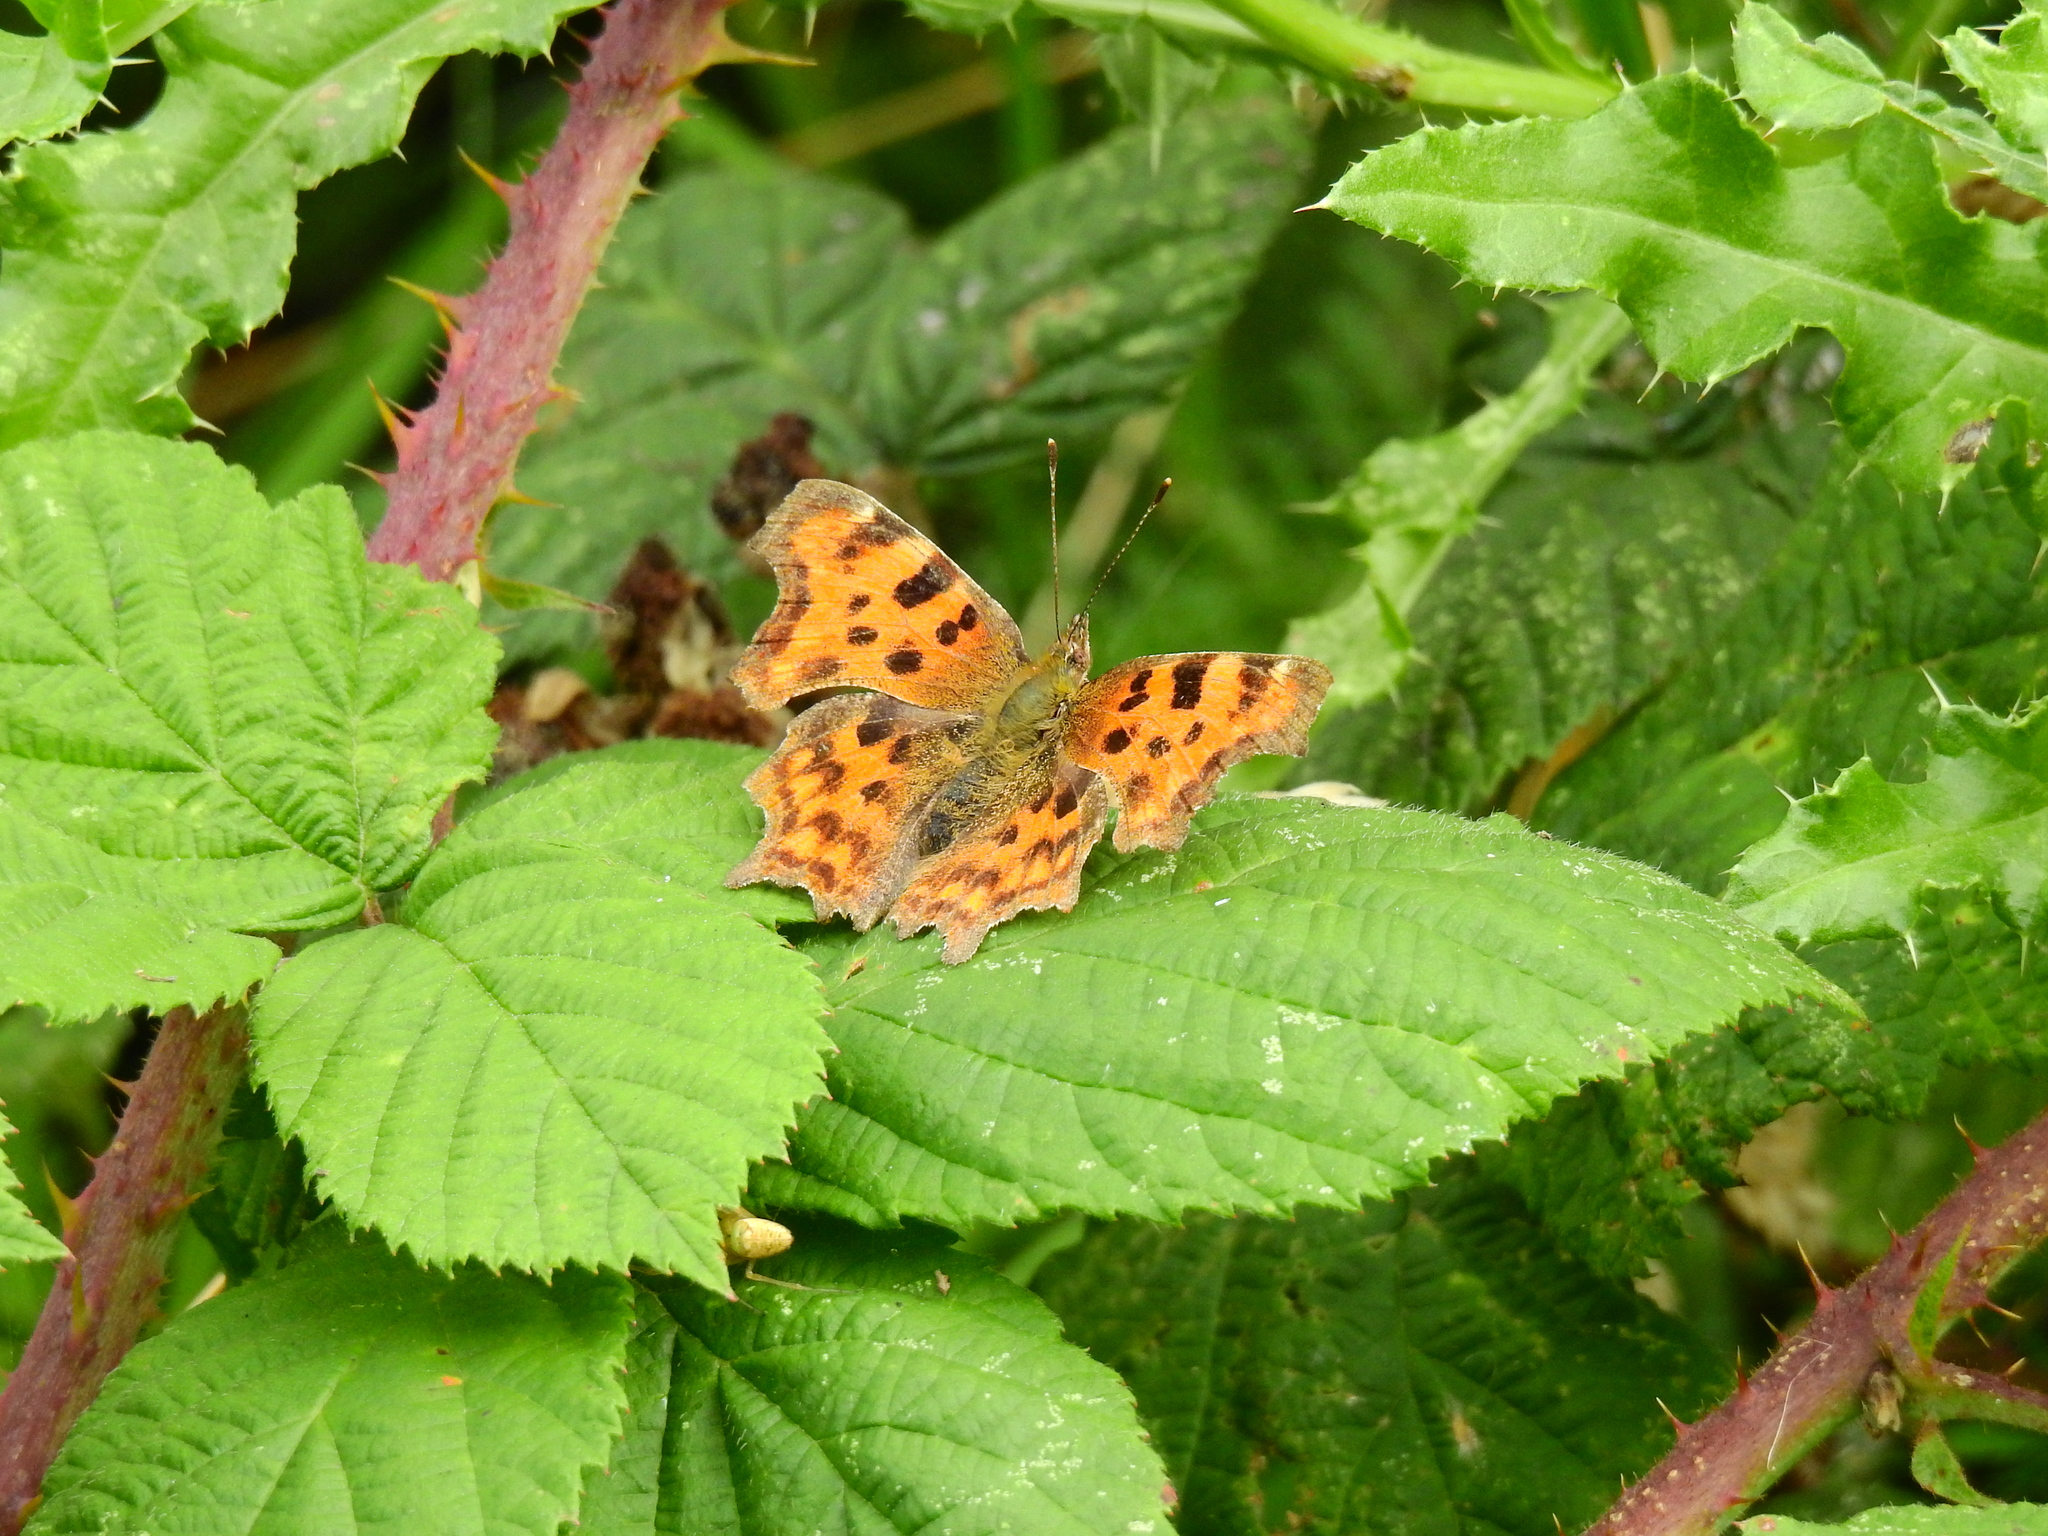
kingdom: Animalia
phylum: Arthropoda
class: Insecta
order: Lepidoptera
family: Nymphalidae
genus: Polygonia
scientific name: Polygonia c-album
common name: Comma
